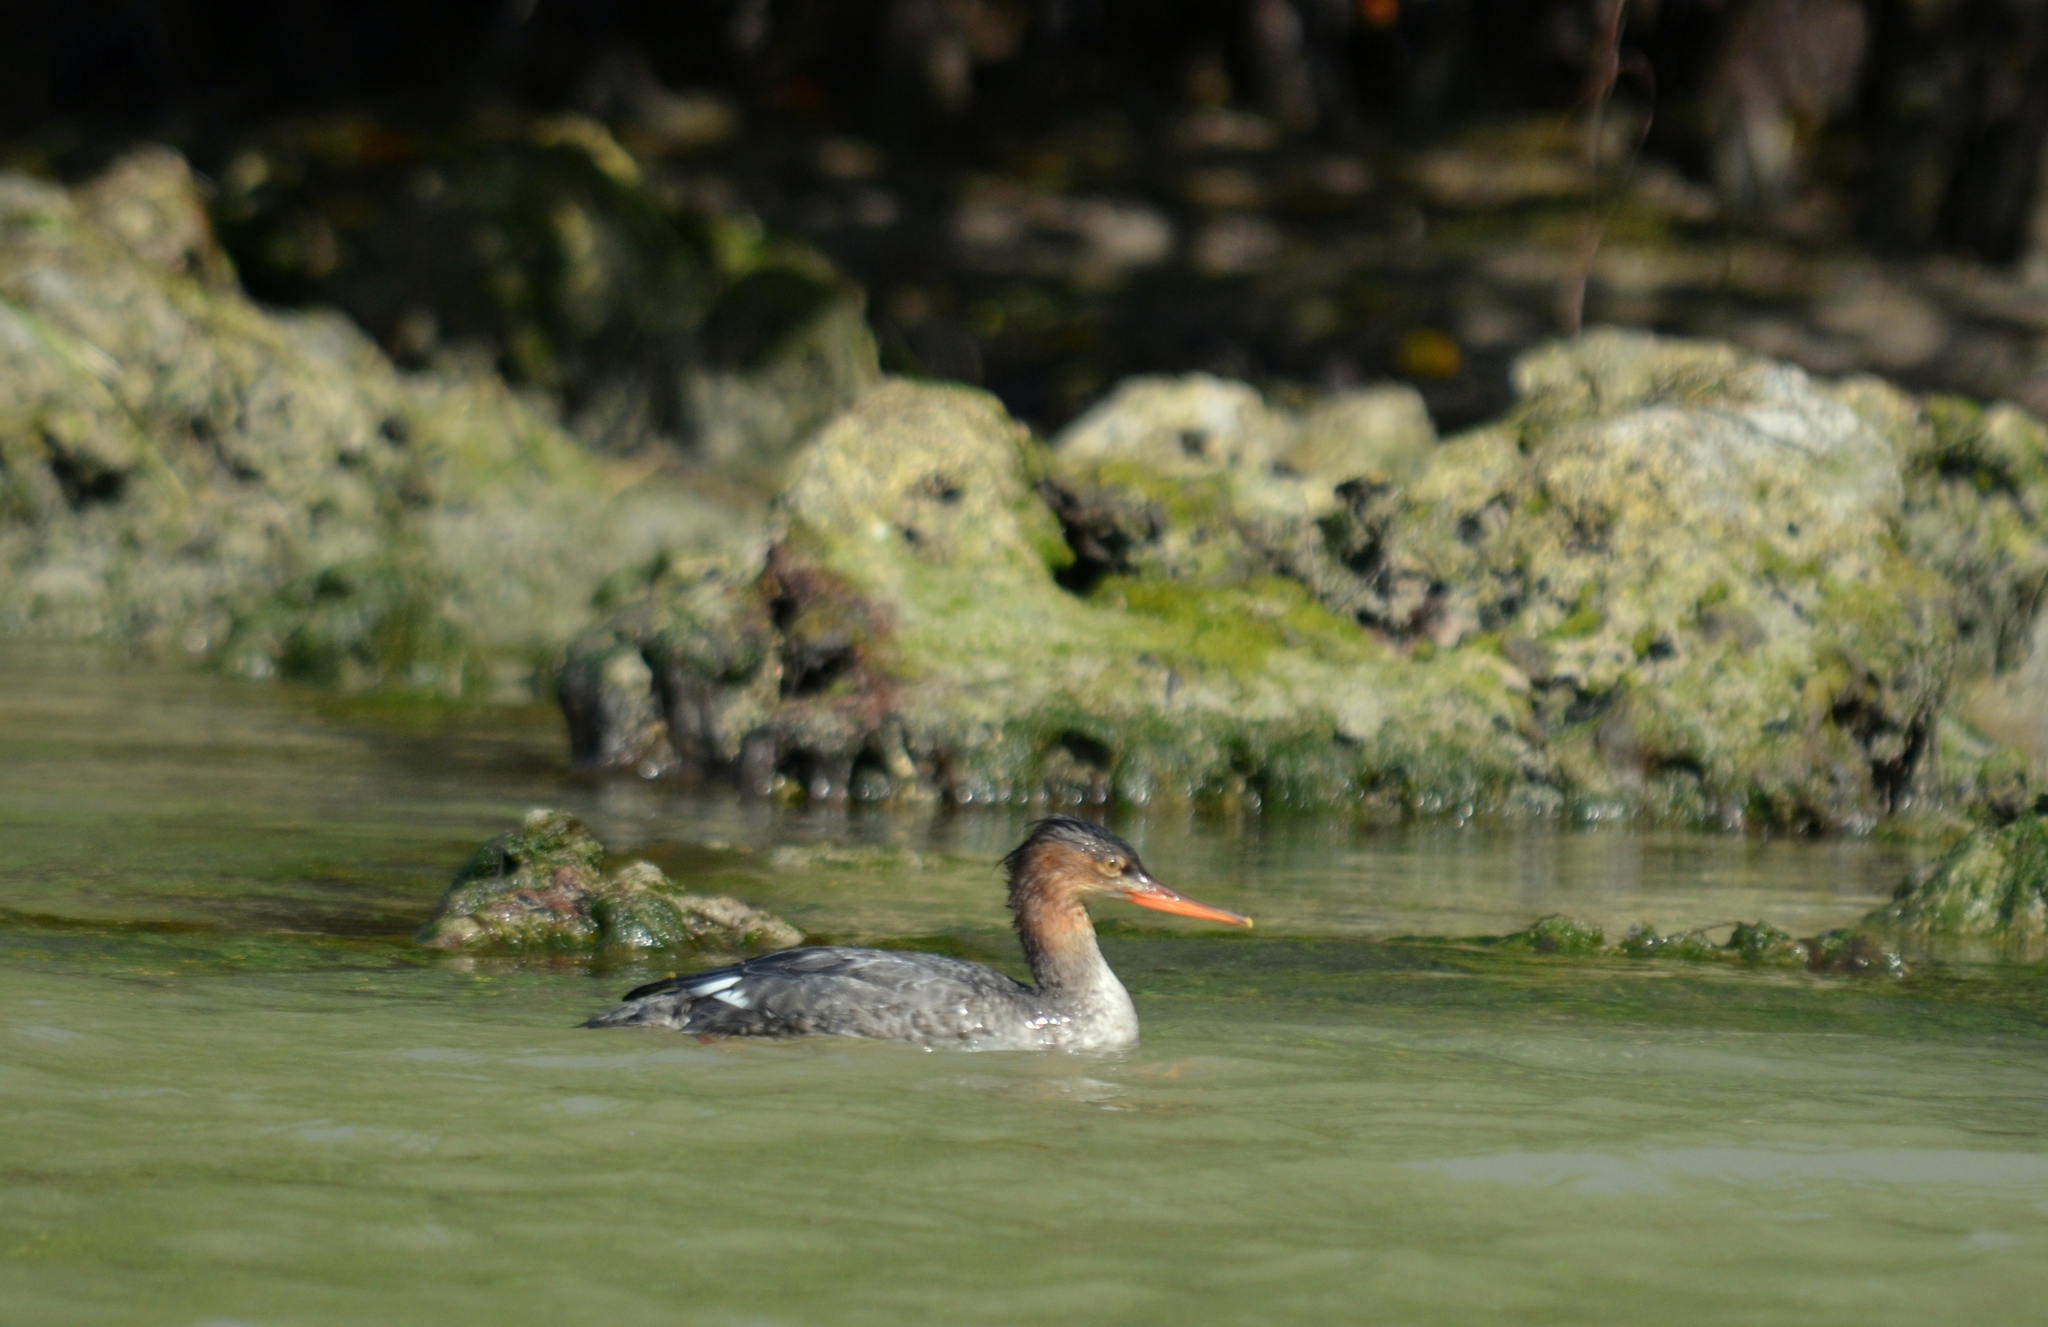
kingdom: Animalia
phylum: Chordata
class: Aves
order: Anseriformes
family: Anatidae
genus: Mergus
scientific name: Mergus serrator
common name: Red-breasted merganser
